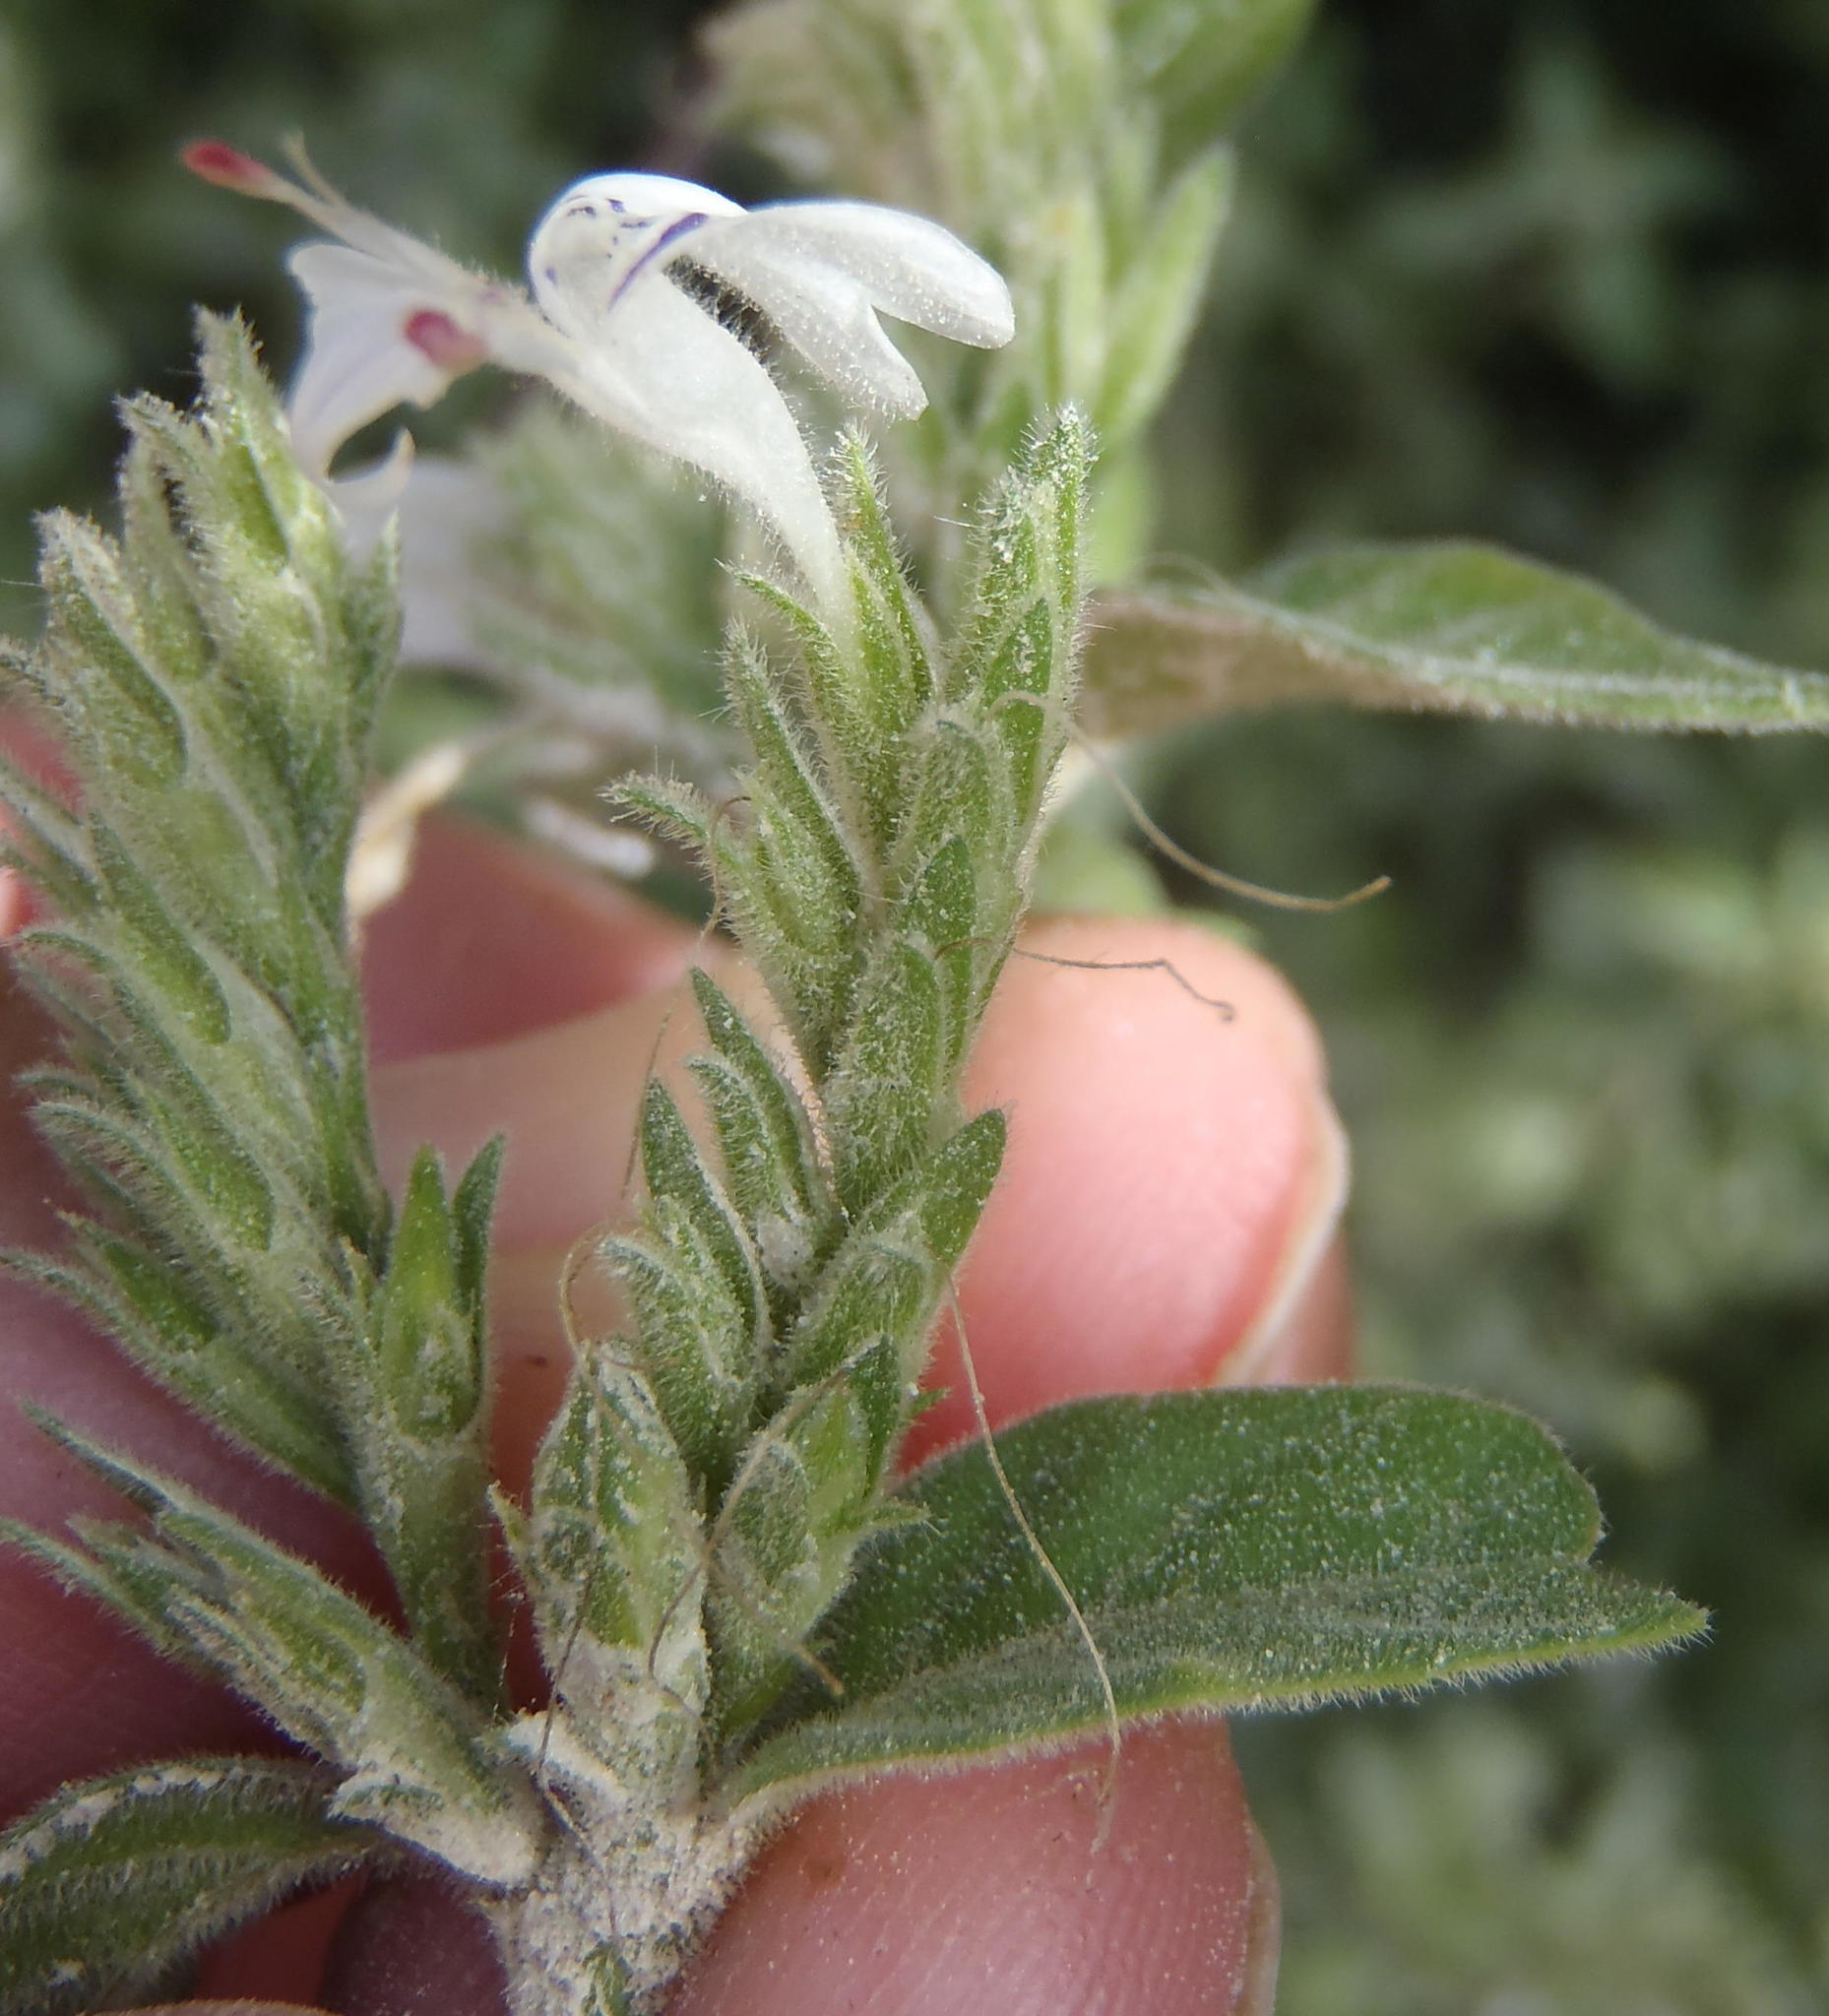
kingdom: Plantae
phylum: Tracheophyta
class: Magnoliopsida
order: Lamiales
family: Acanthaceae
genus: Hypoestes
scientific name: Hypoestes forskaolii
